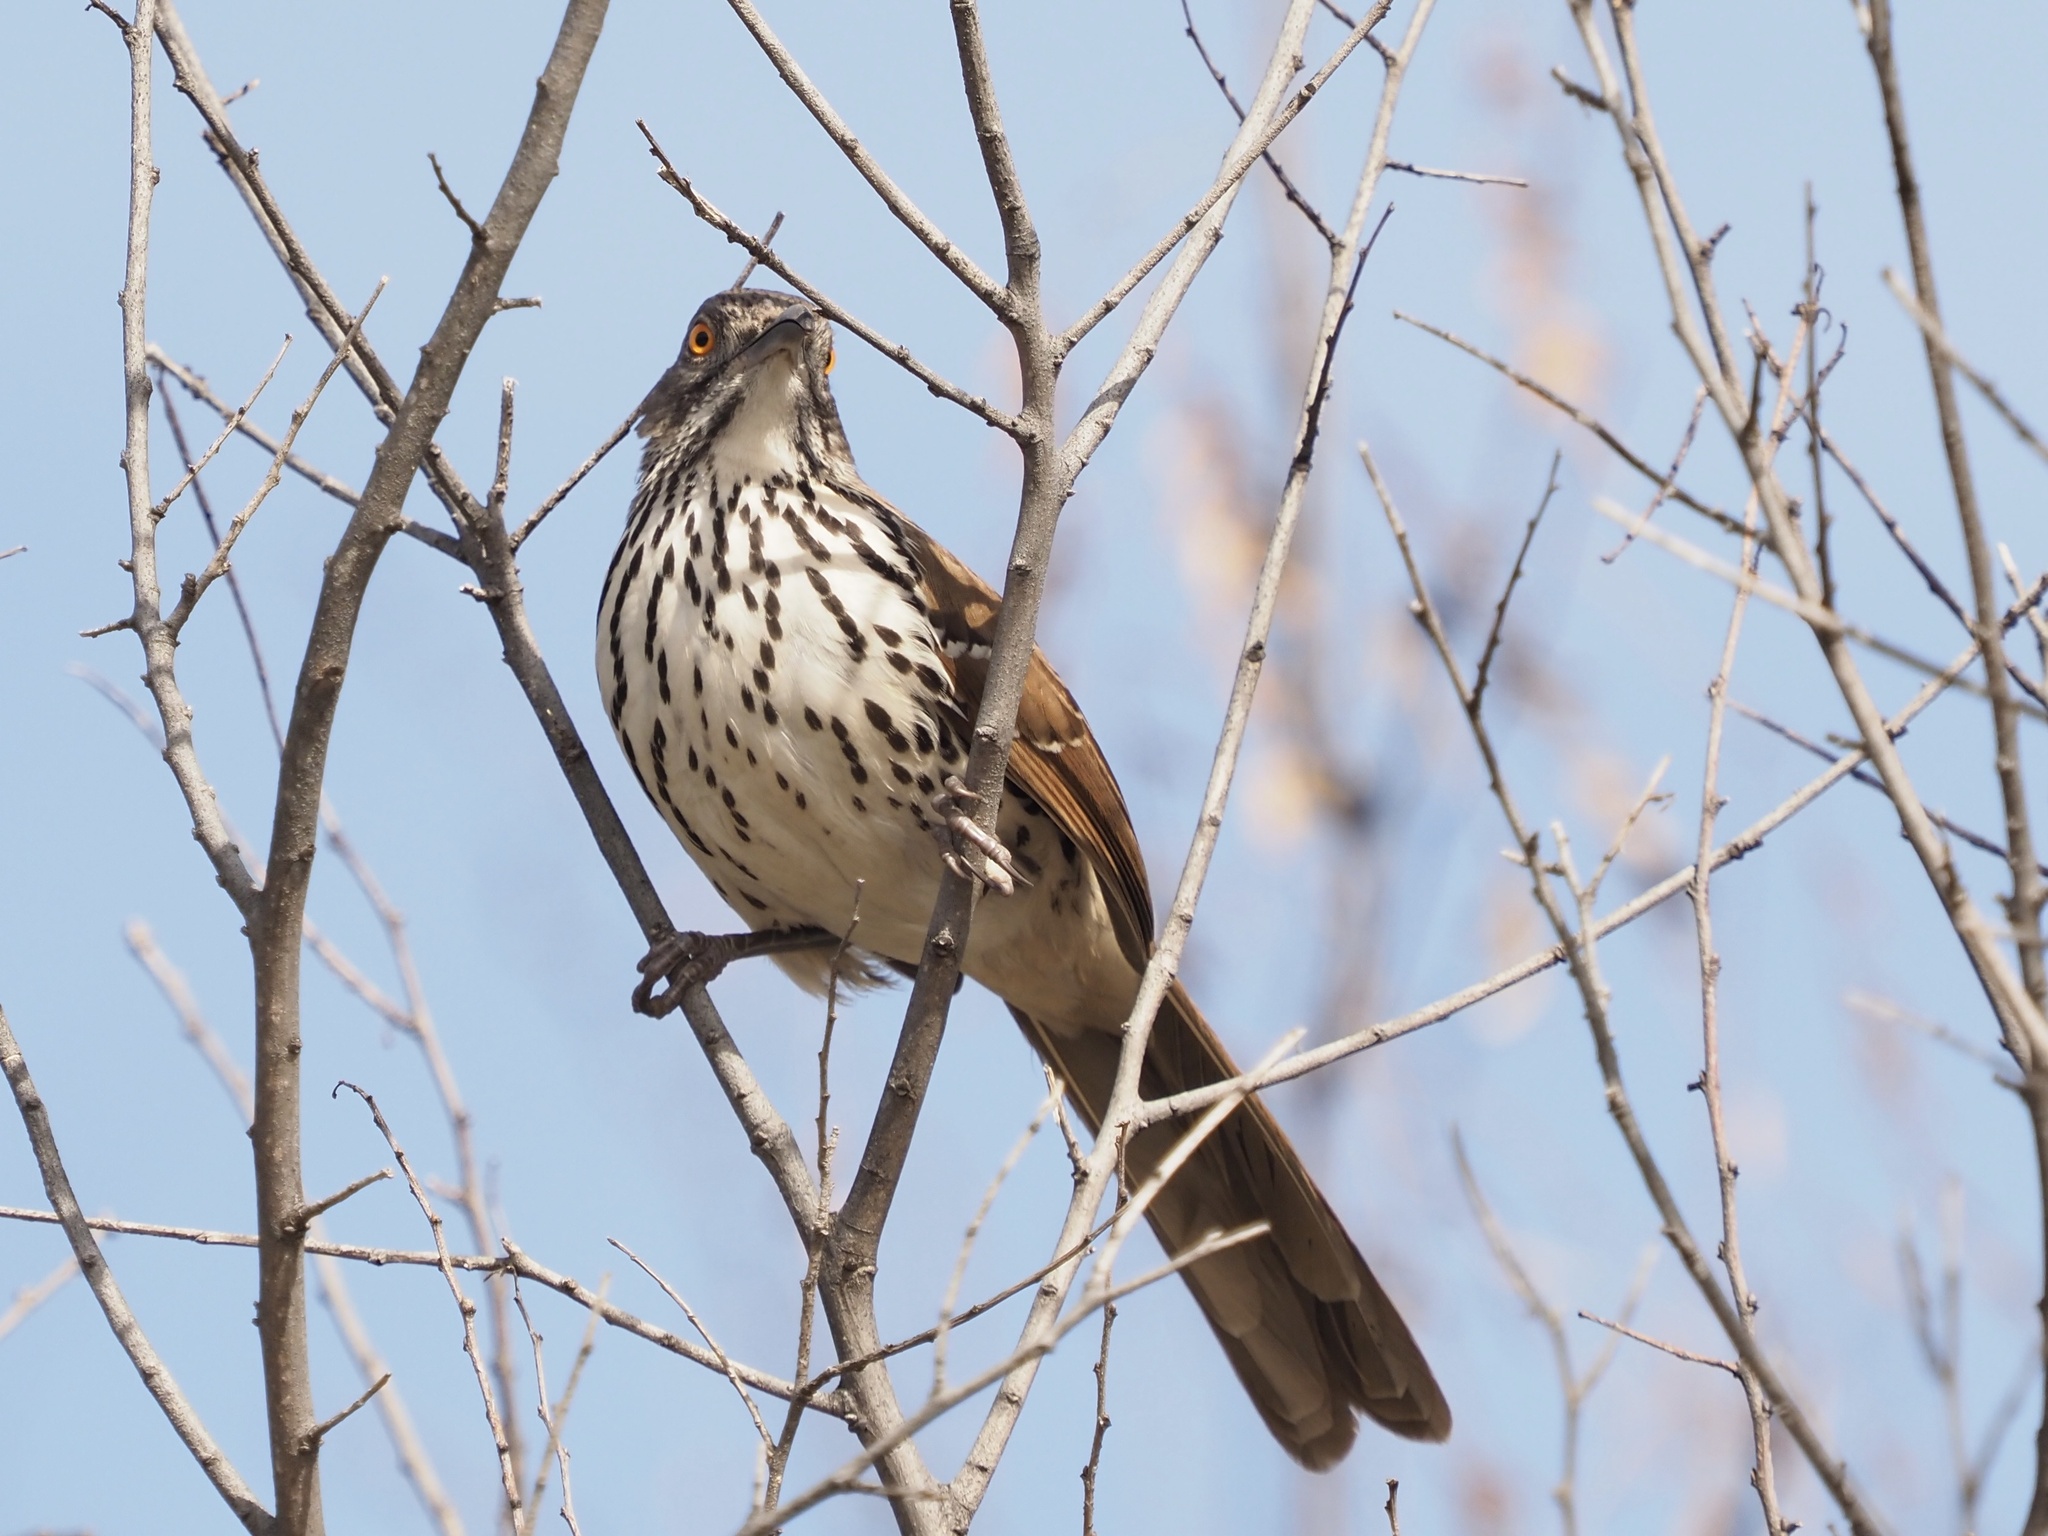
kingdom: Animalia
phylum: Chordata
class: Aves
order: Passeriformes
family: Mimidae
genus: Toxostoma
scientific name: Toxostoma longirostre
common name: Long-billed thrasher
